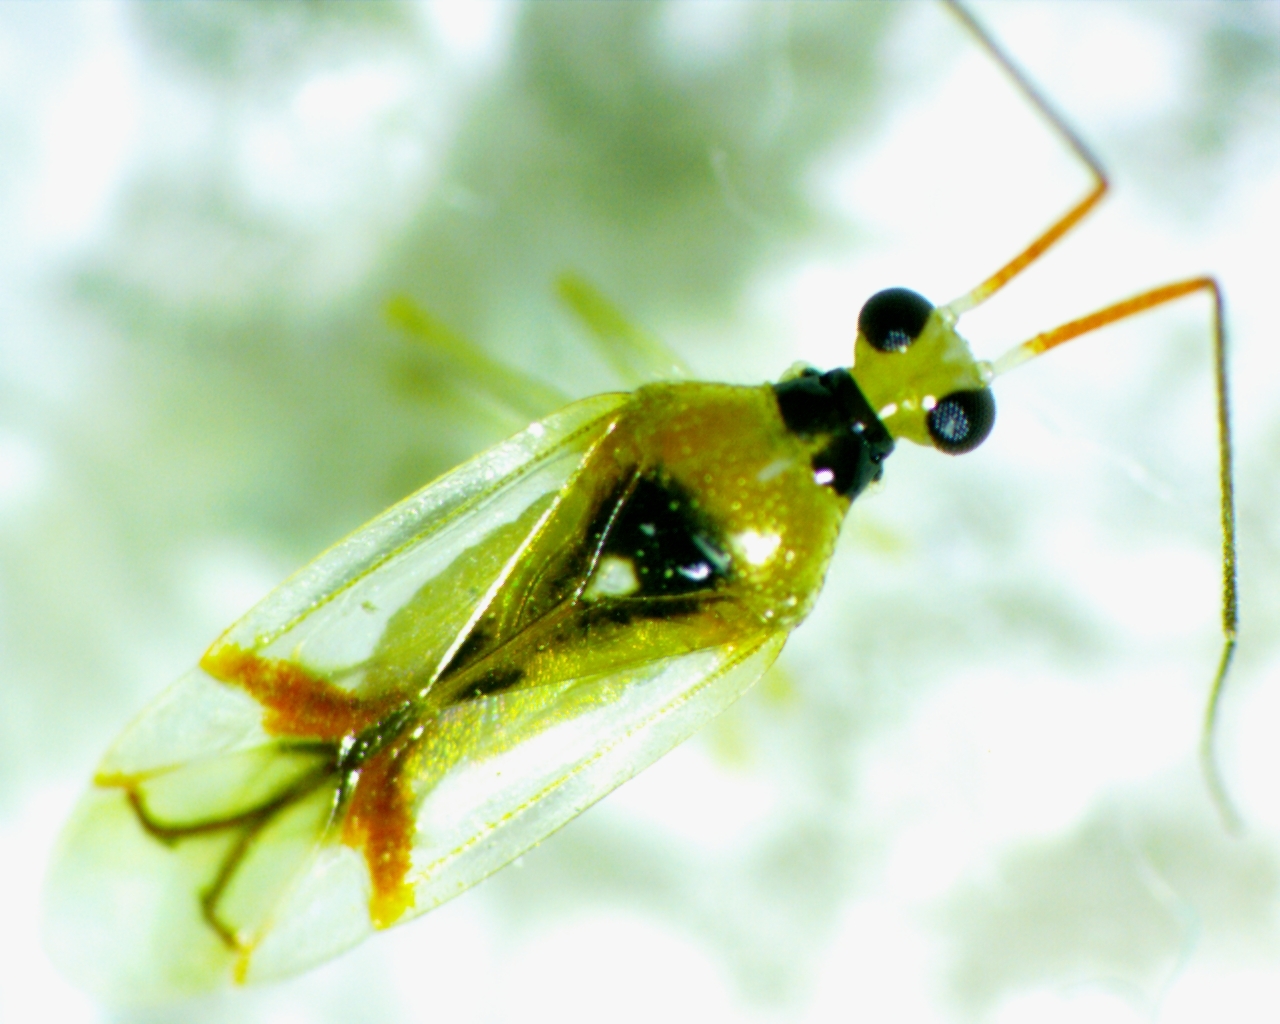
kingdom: Animalia
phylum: Arthropoda
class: Insecta
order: Hemiptera
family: Miridae
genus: Hyaliodes
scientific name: Hyaliodes harti
